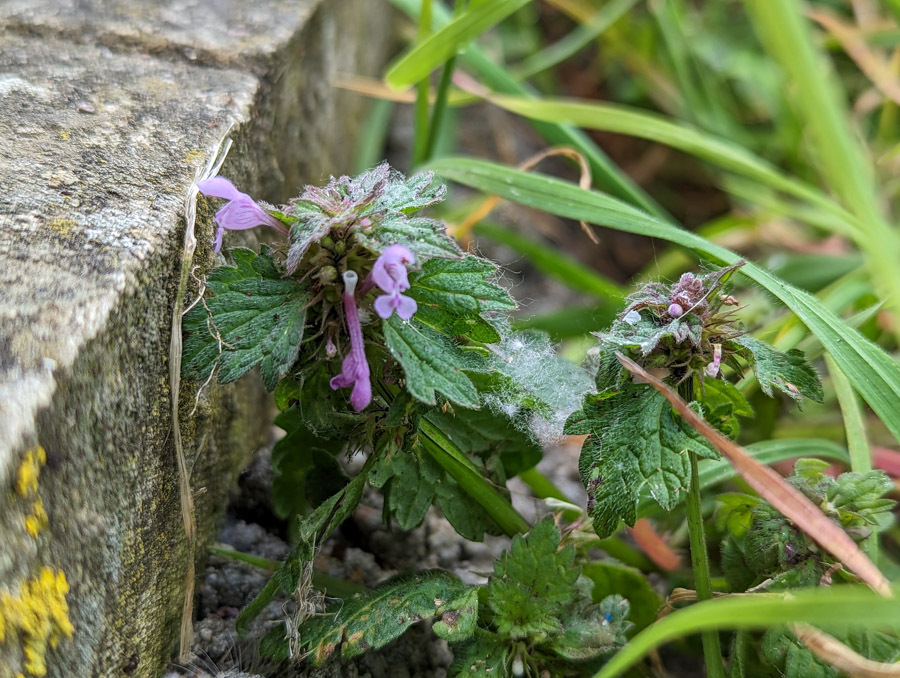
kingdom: Plantae
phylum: Tracheophyta
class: Magnoliopsida
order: Lamiales
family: Lamiaceae
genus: Lamium
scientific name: Lamium hybridum
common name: Cut-leaved dead-nettle
